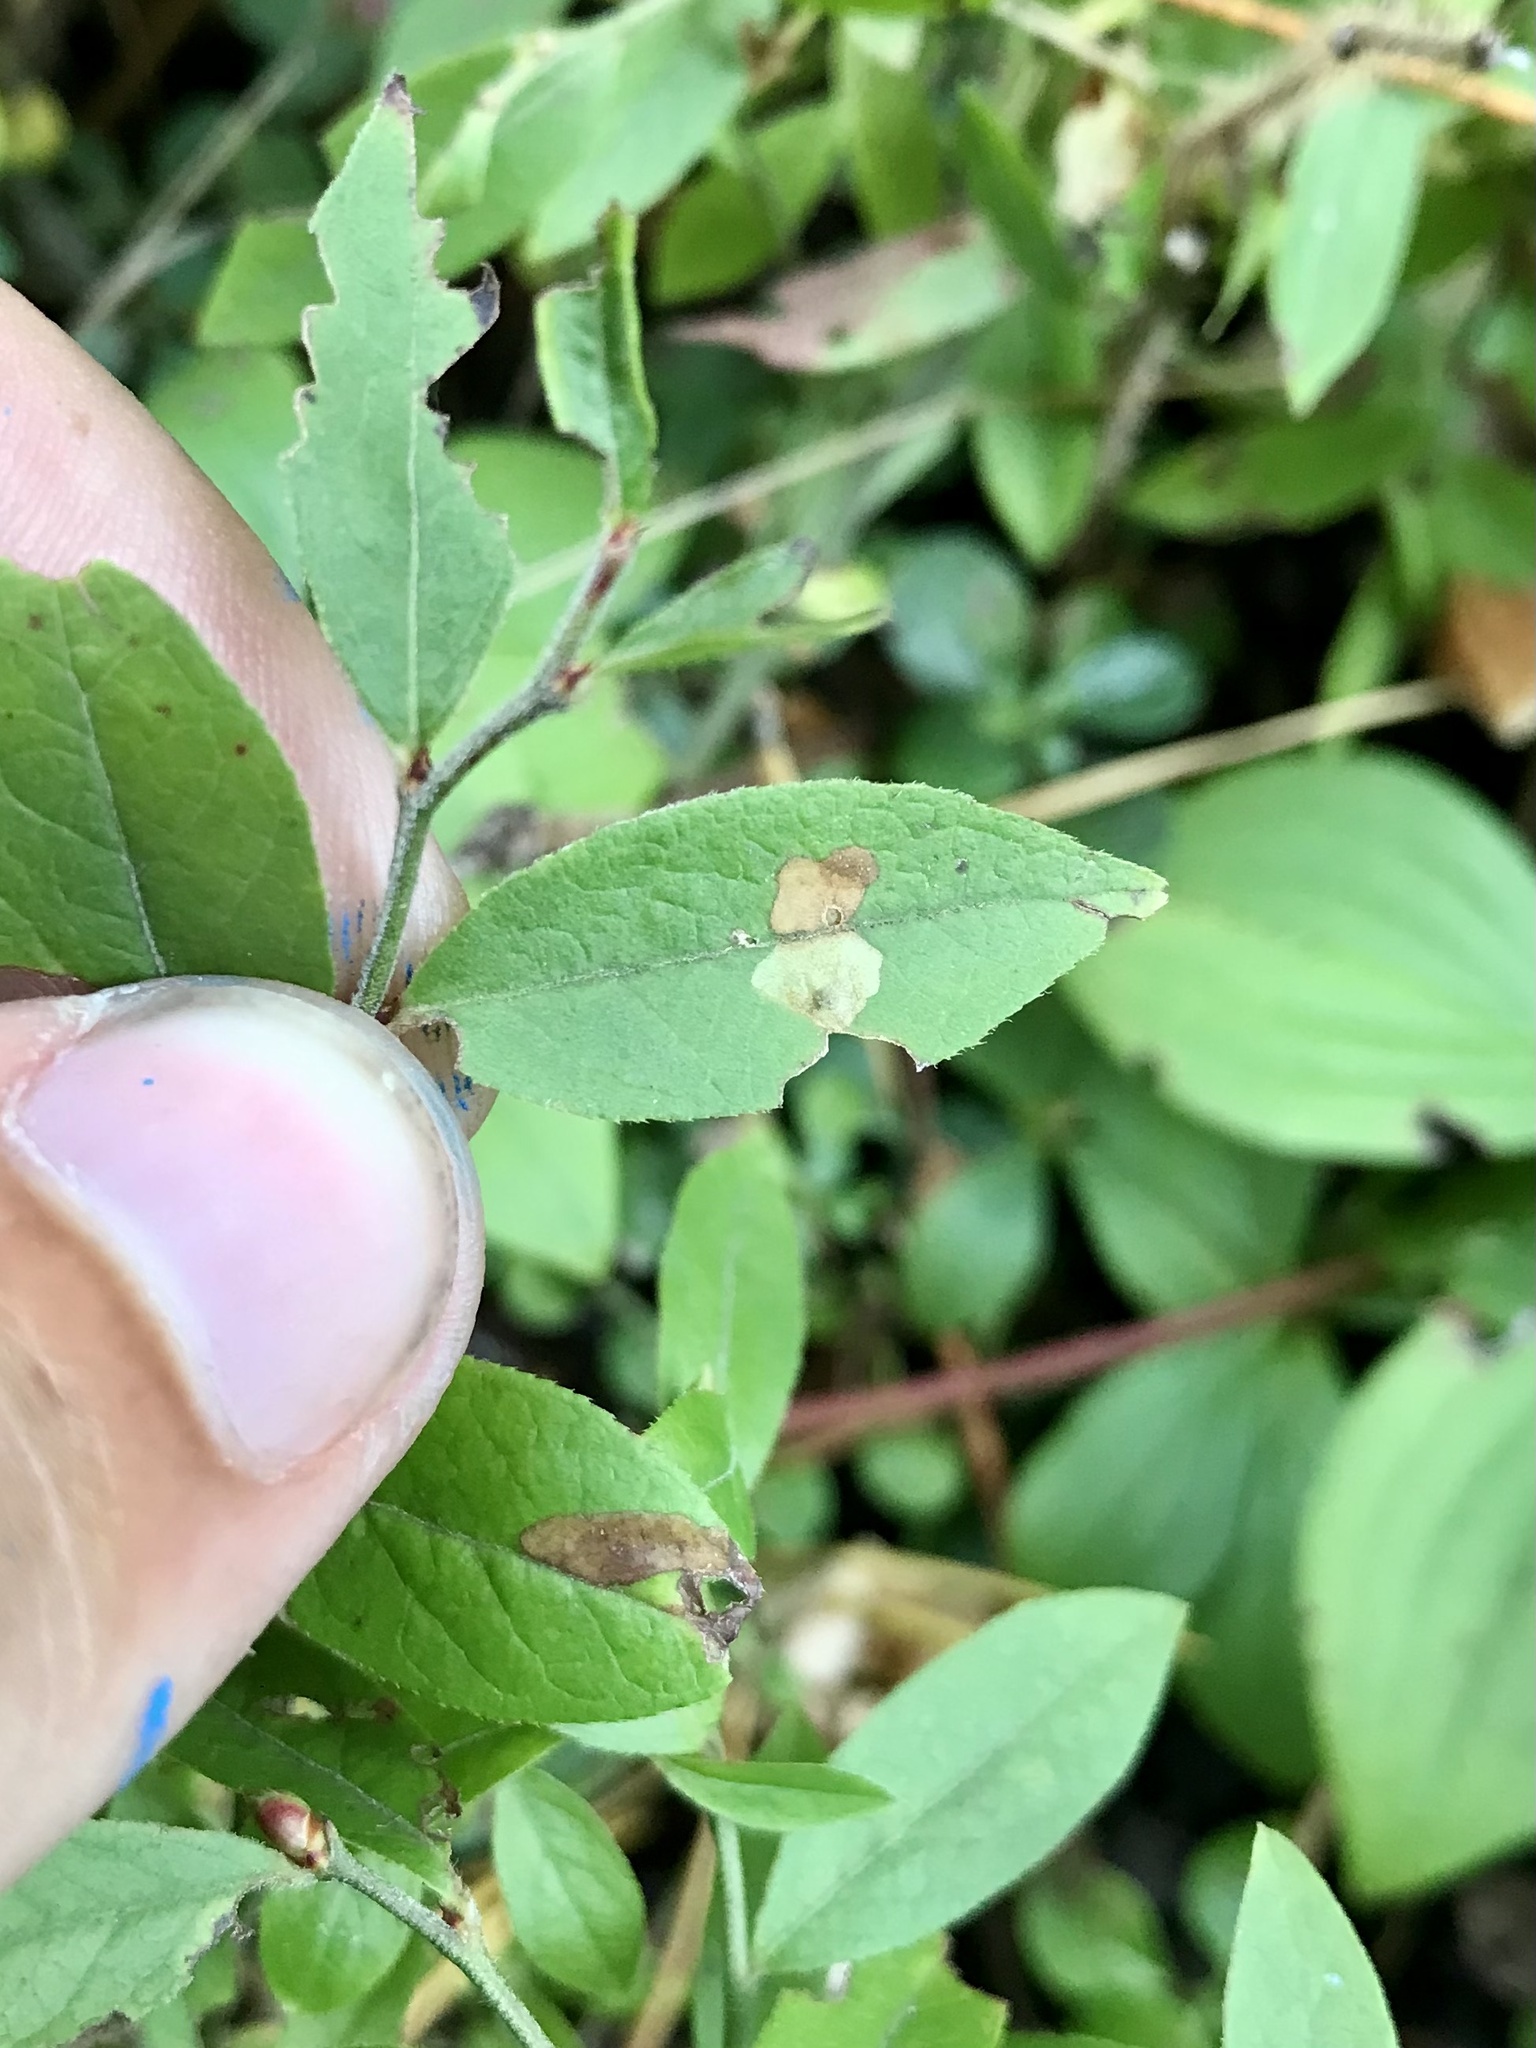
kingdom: Animalia
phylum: Arthropoda
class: Insecta
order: Lepidoptera
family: Coleophoridae
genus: Coleophora
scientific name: Coleophora vacciniivorella
